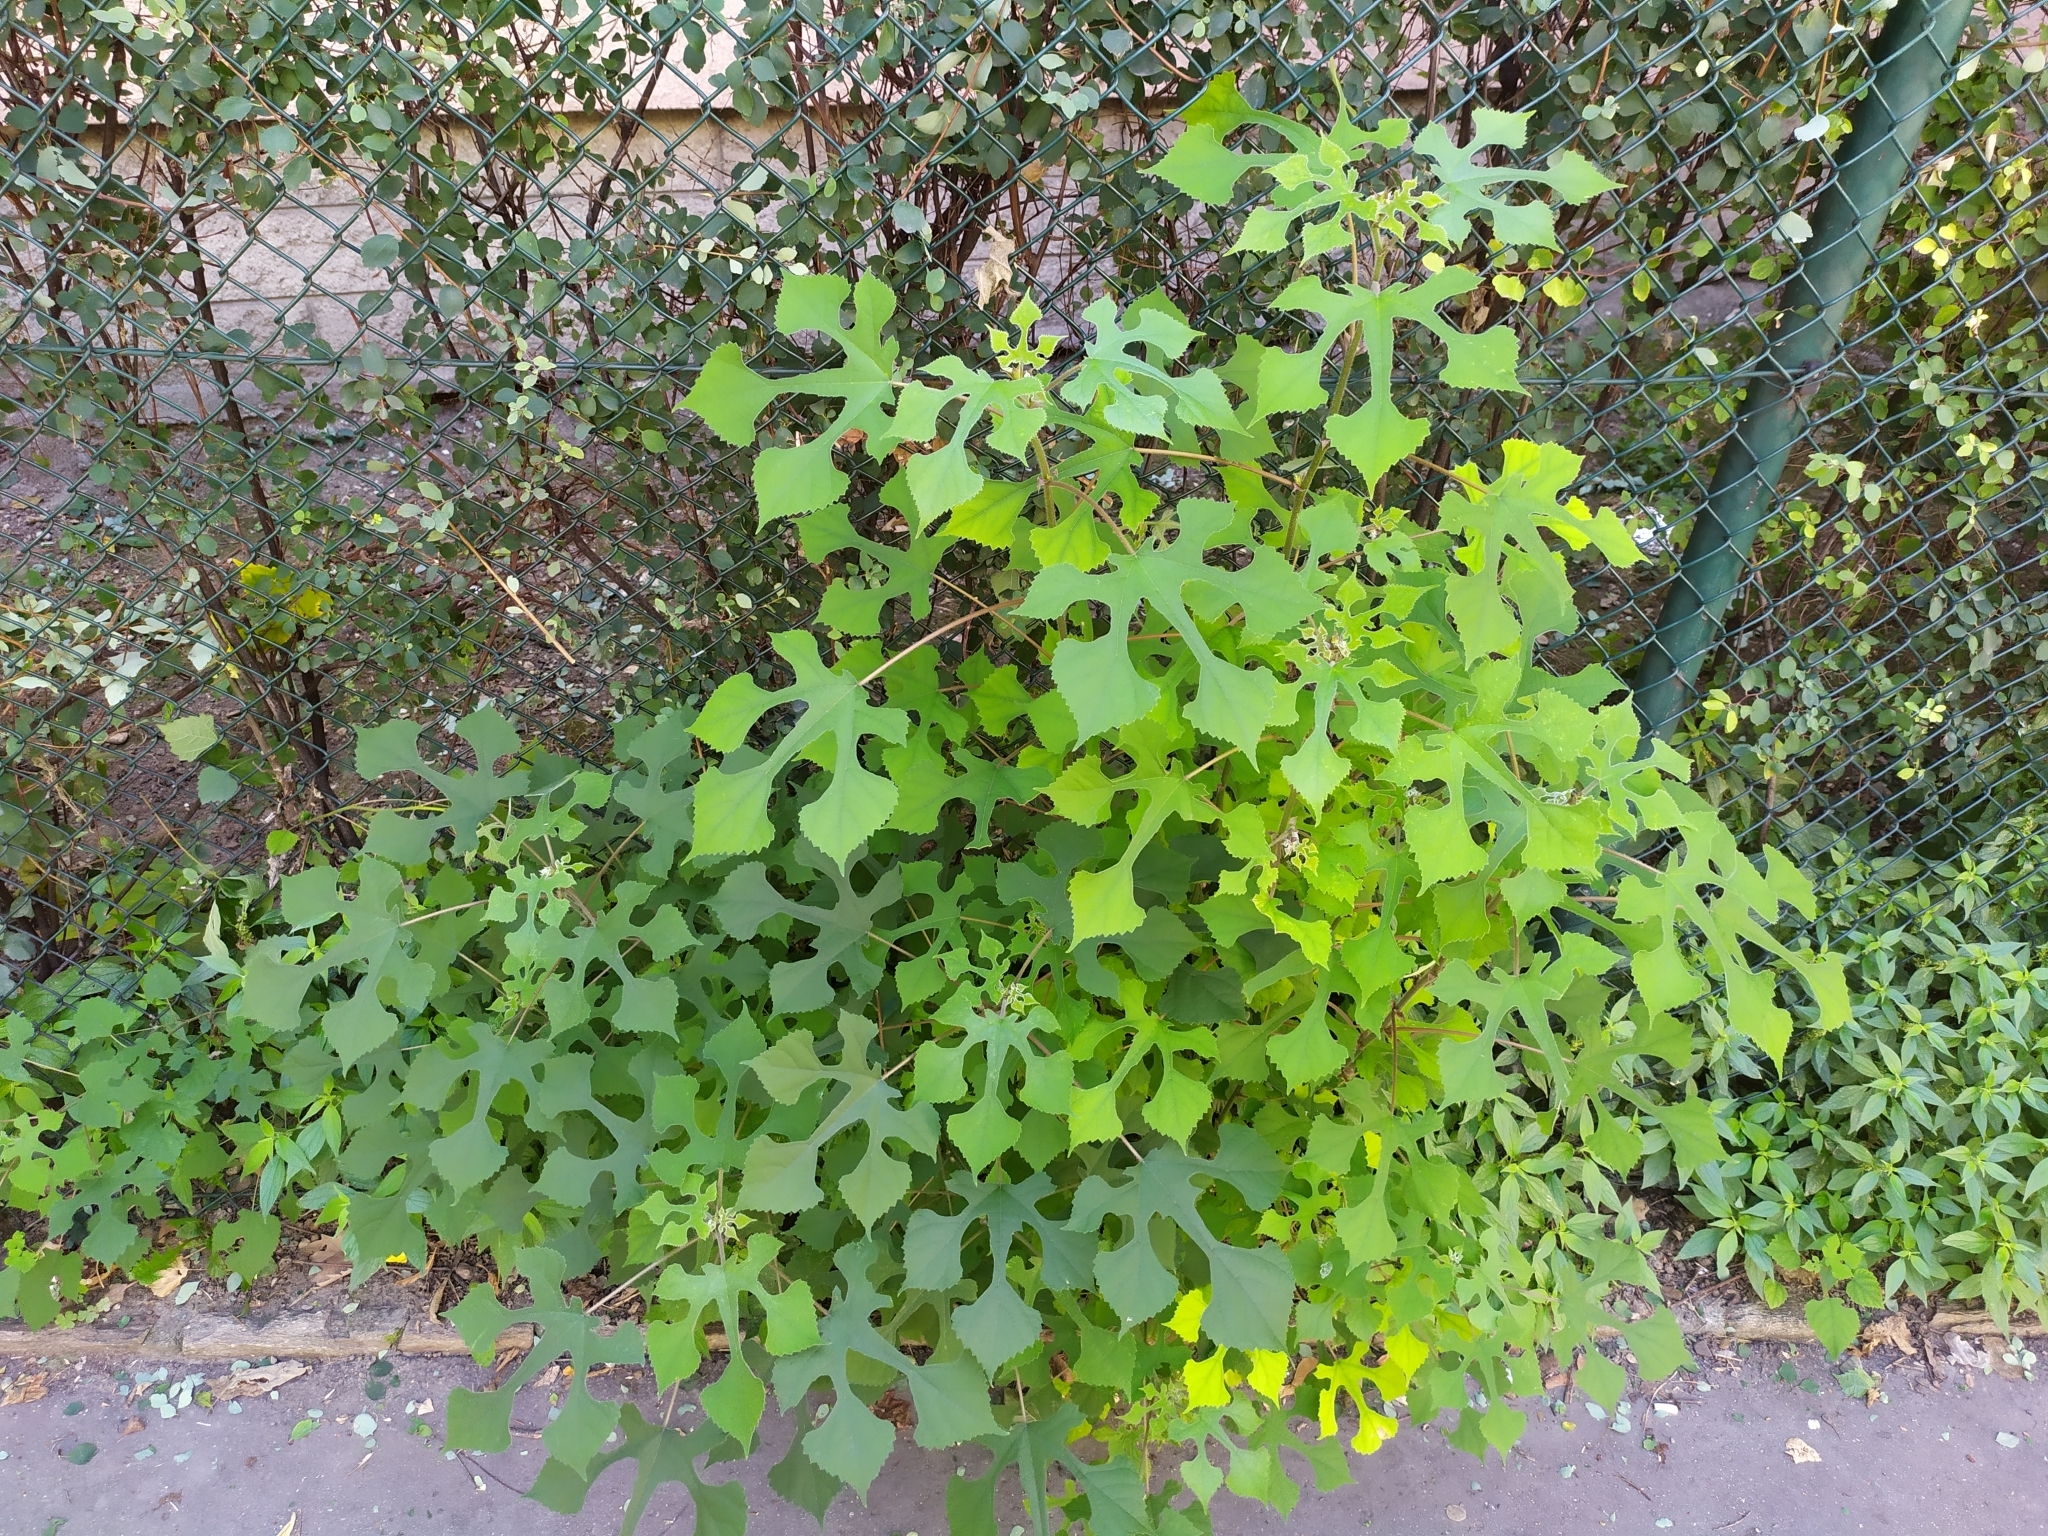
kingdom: Plantae
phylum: Tracheophyta
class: Magnoliopsida
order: Rosales
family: Moraceae
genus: Broussonetia
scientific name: Broussonetia papyrifera
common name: Paper mulberry
